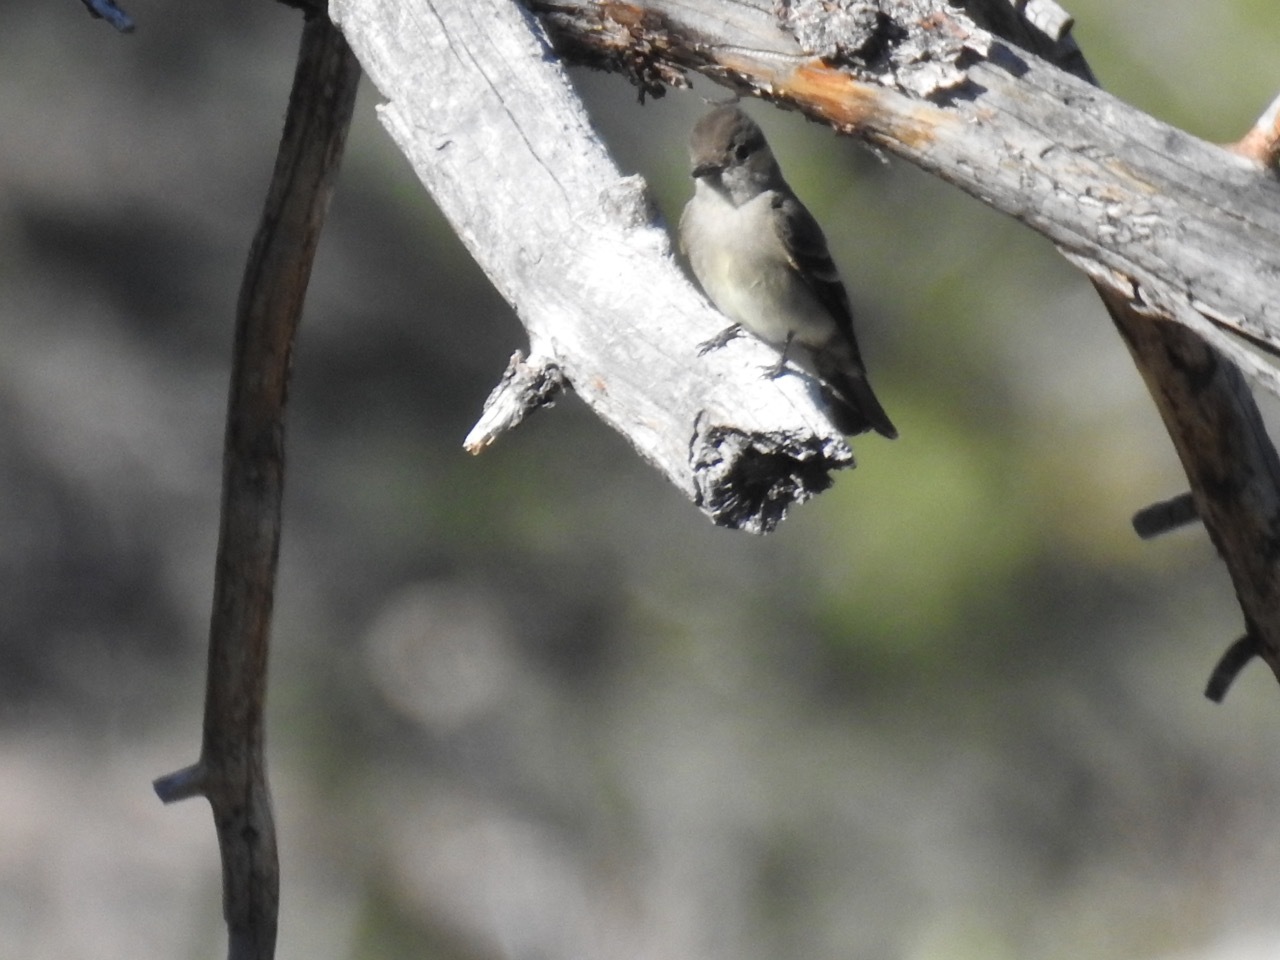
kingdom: Animalia
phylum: Chordata
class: Aves
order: Passeriformes
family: Tyrannidae
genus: Contopus
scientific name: Contopus sordidulus
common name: Western wood-pewee
